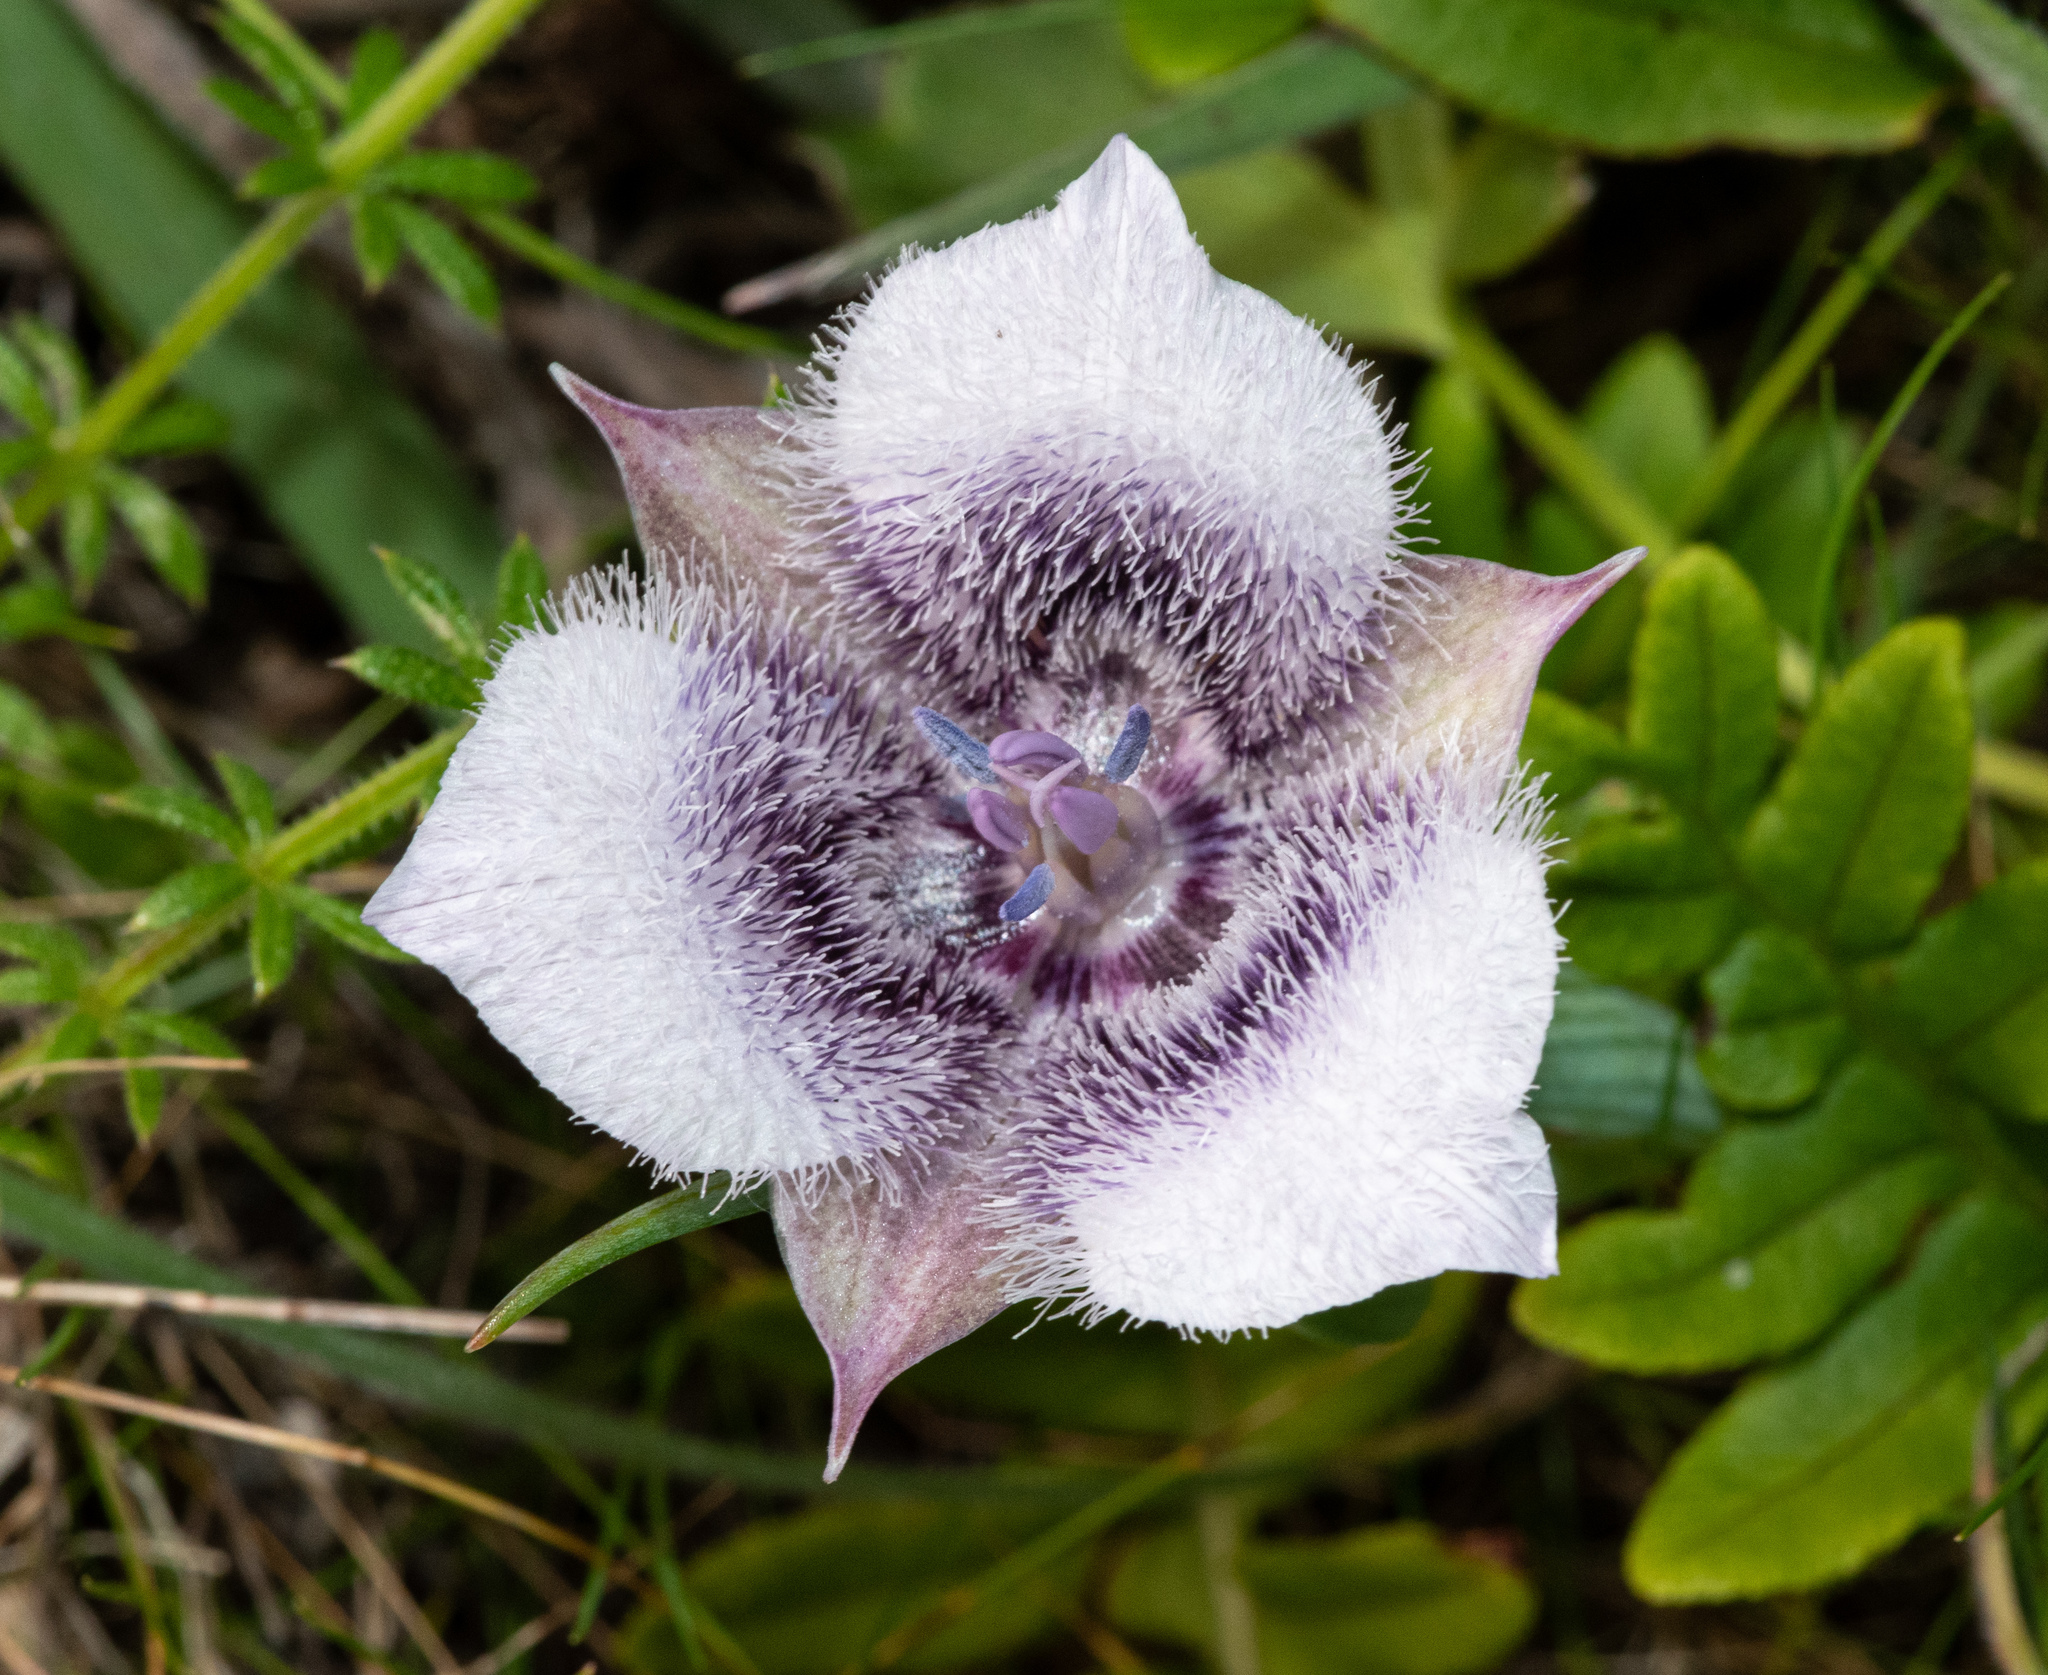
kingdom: Plantae
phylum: Tracheophyta
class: Liliopsida
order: Liliales
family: Liliaceae
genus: Calochortus
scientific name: Calochortus tolmiei
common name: Pussy-ears
